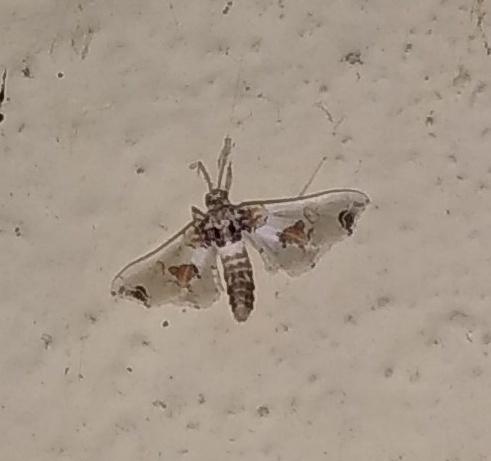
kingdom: Animalia
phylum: Arthropoda
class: Insecta
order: Lepidoptera
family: Crambidae
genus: Leucinodes
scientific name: Leucinodes orbonalis
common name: Aubergine pearl
